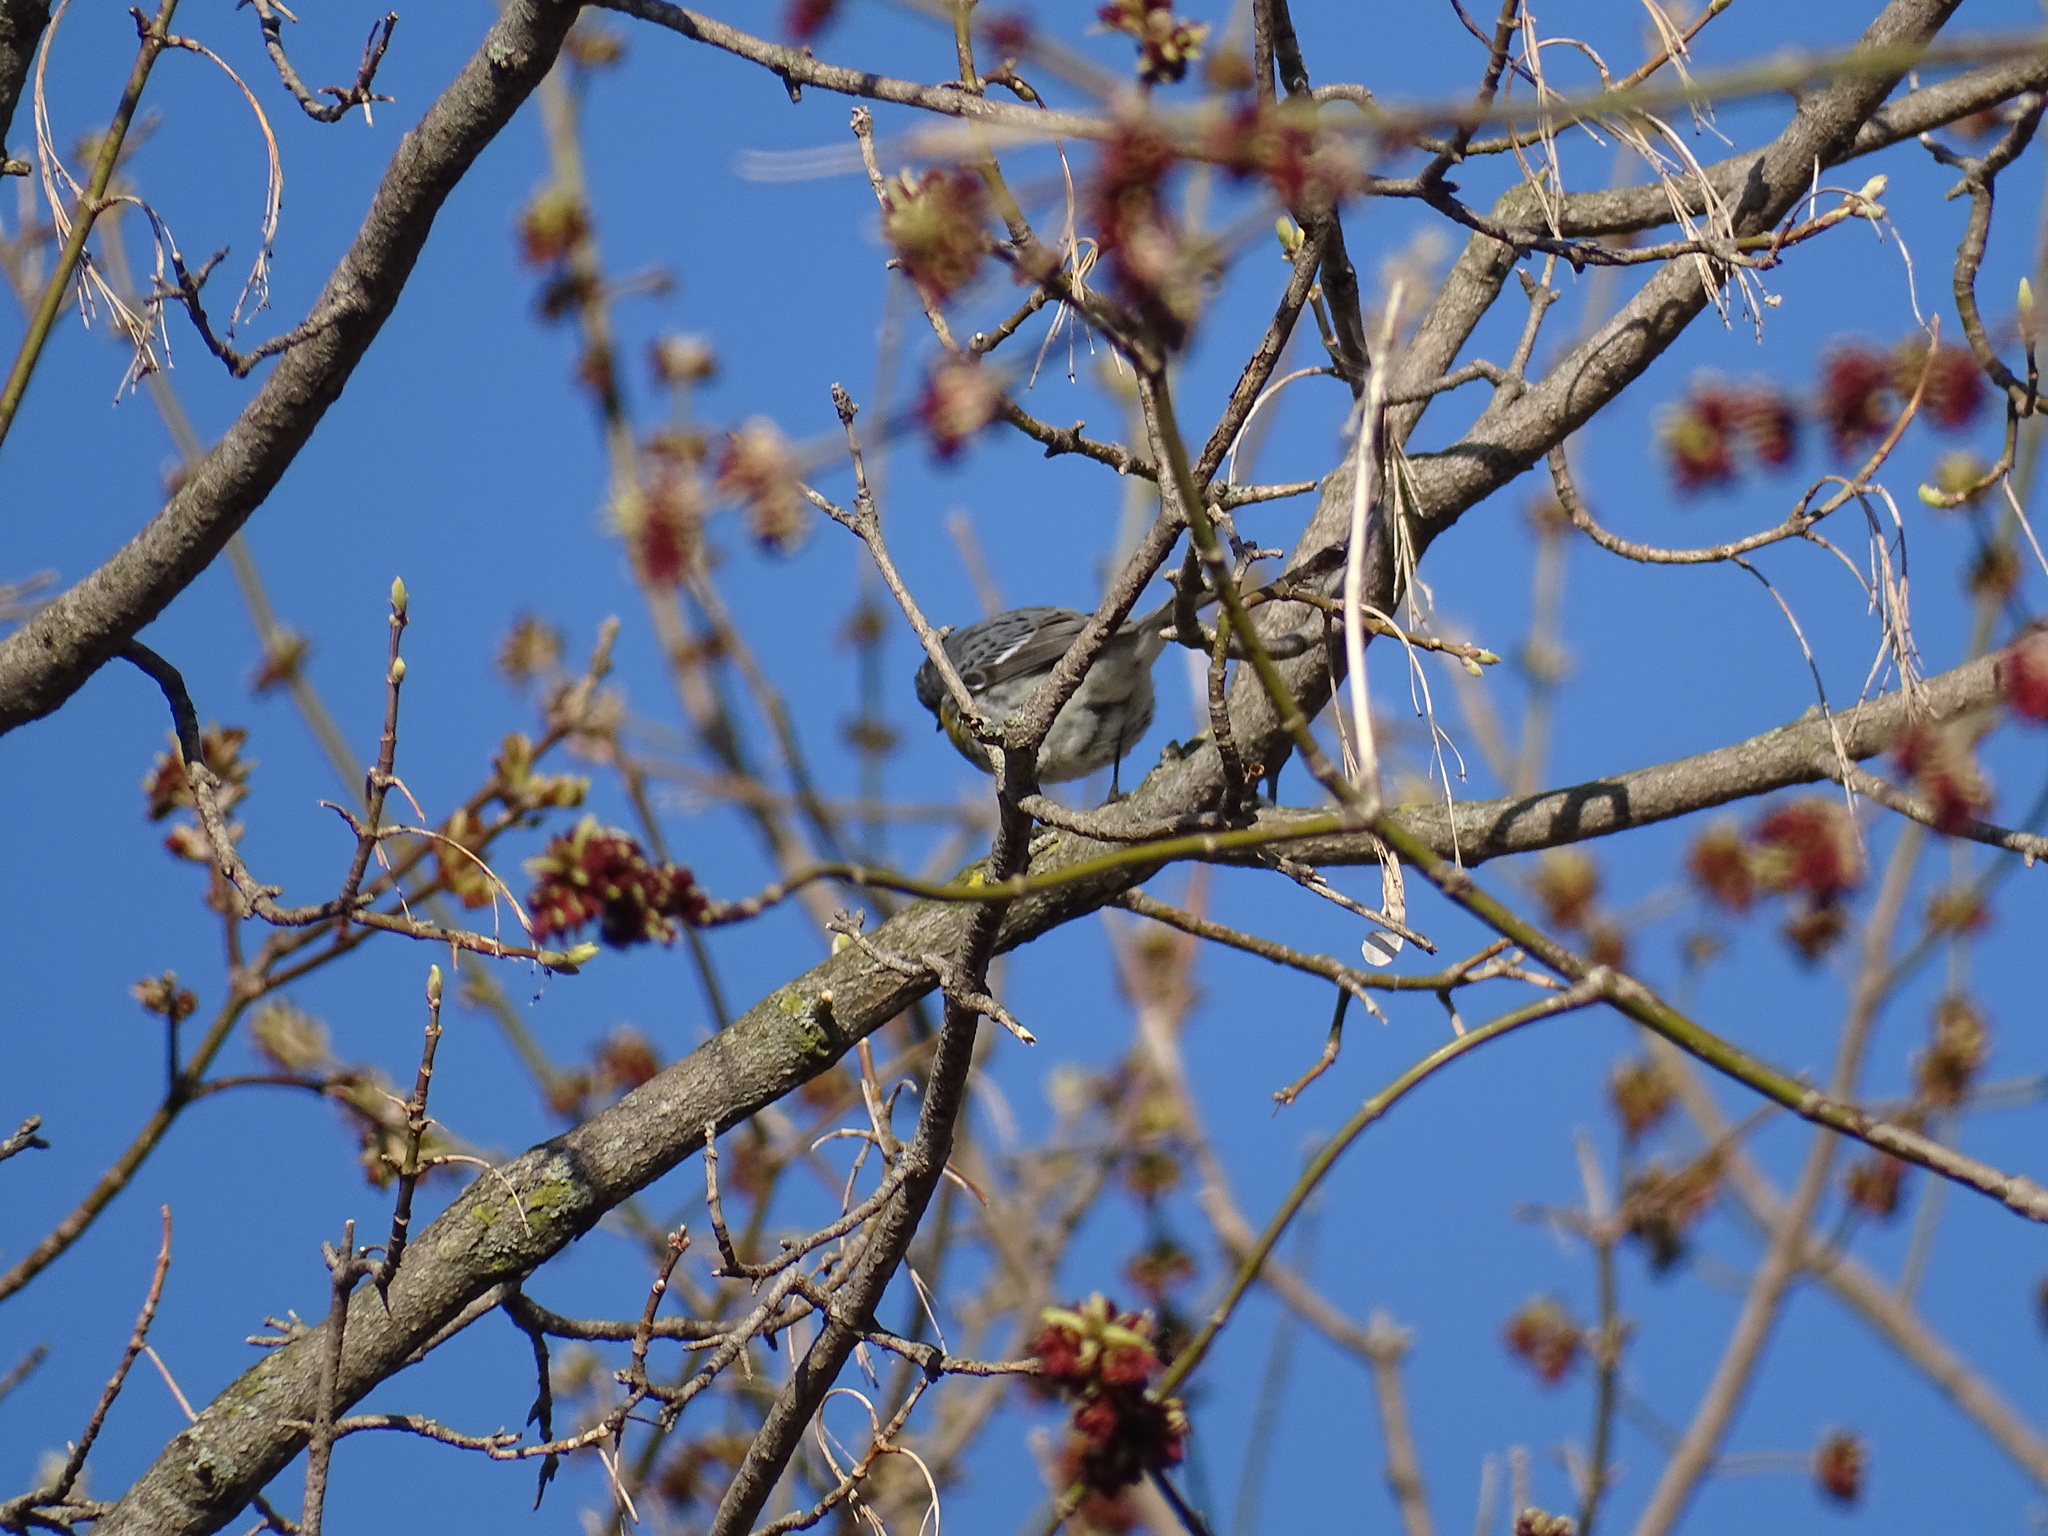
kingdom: Animalia
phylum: Chordata
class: Aves
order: Passeriformes
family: Parulidae
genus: Setophaga
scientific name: Setophaga coronata
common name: Myrtle warbler
